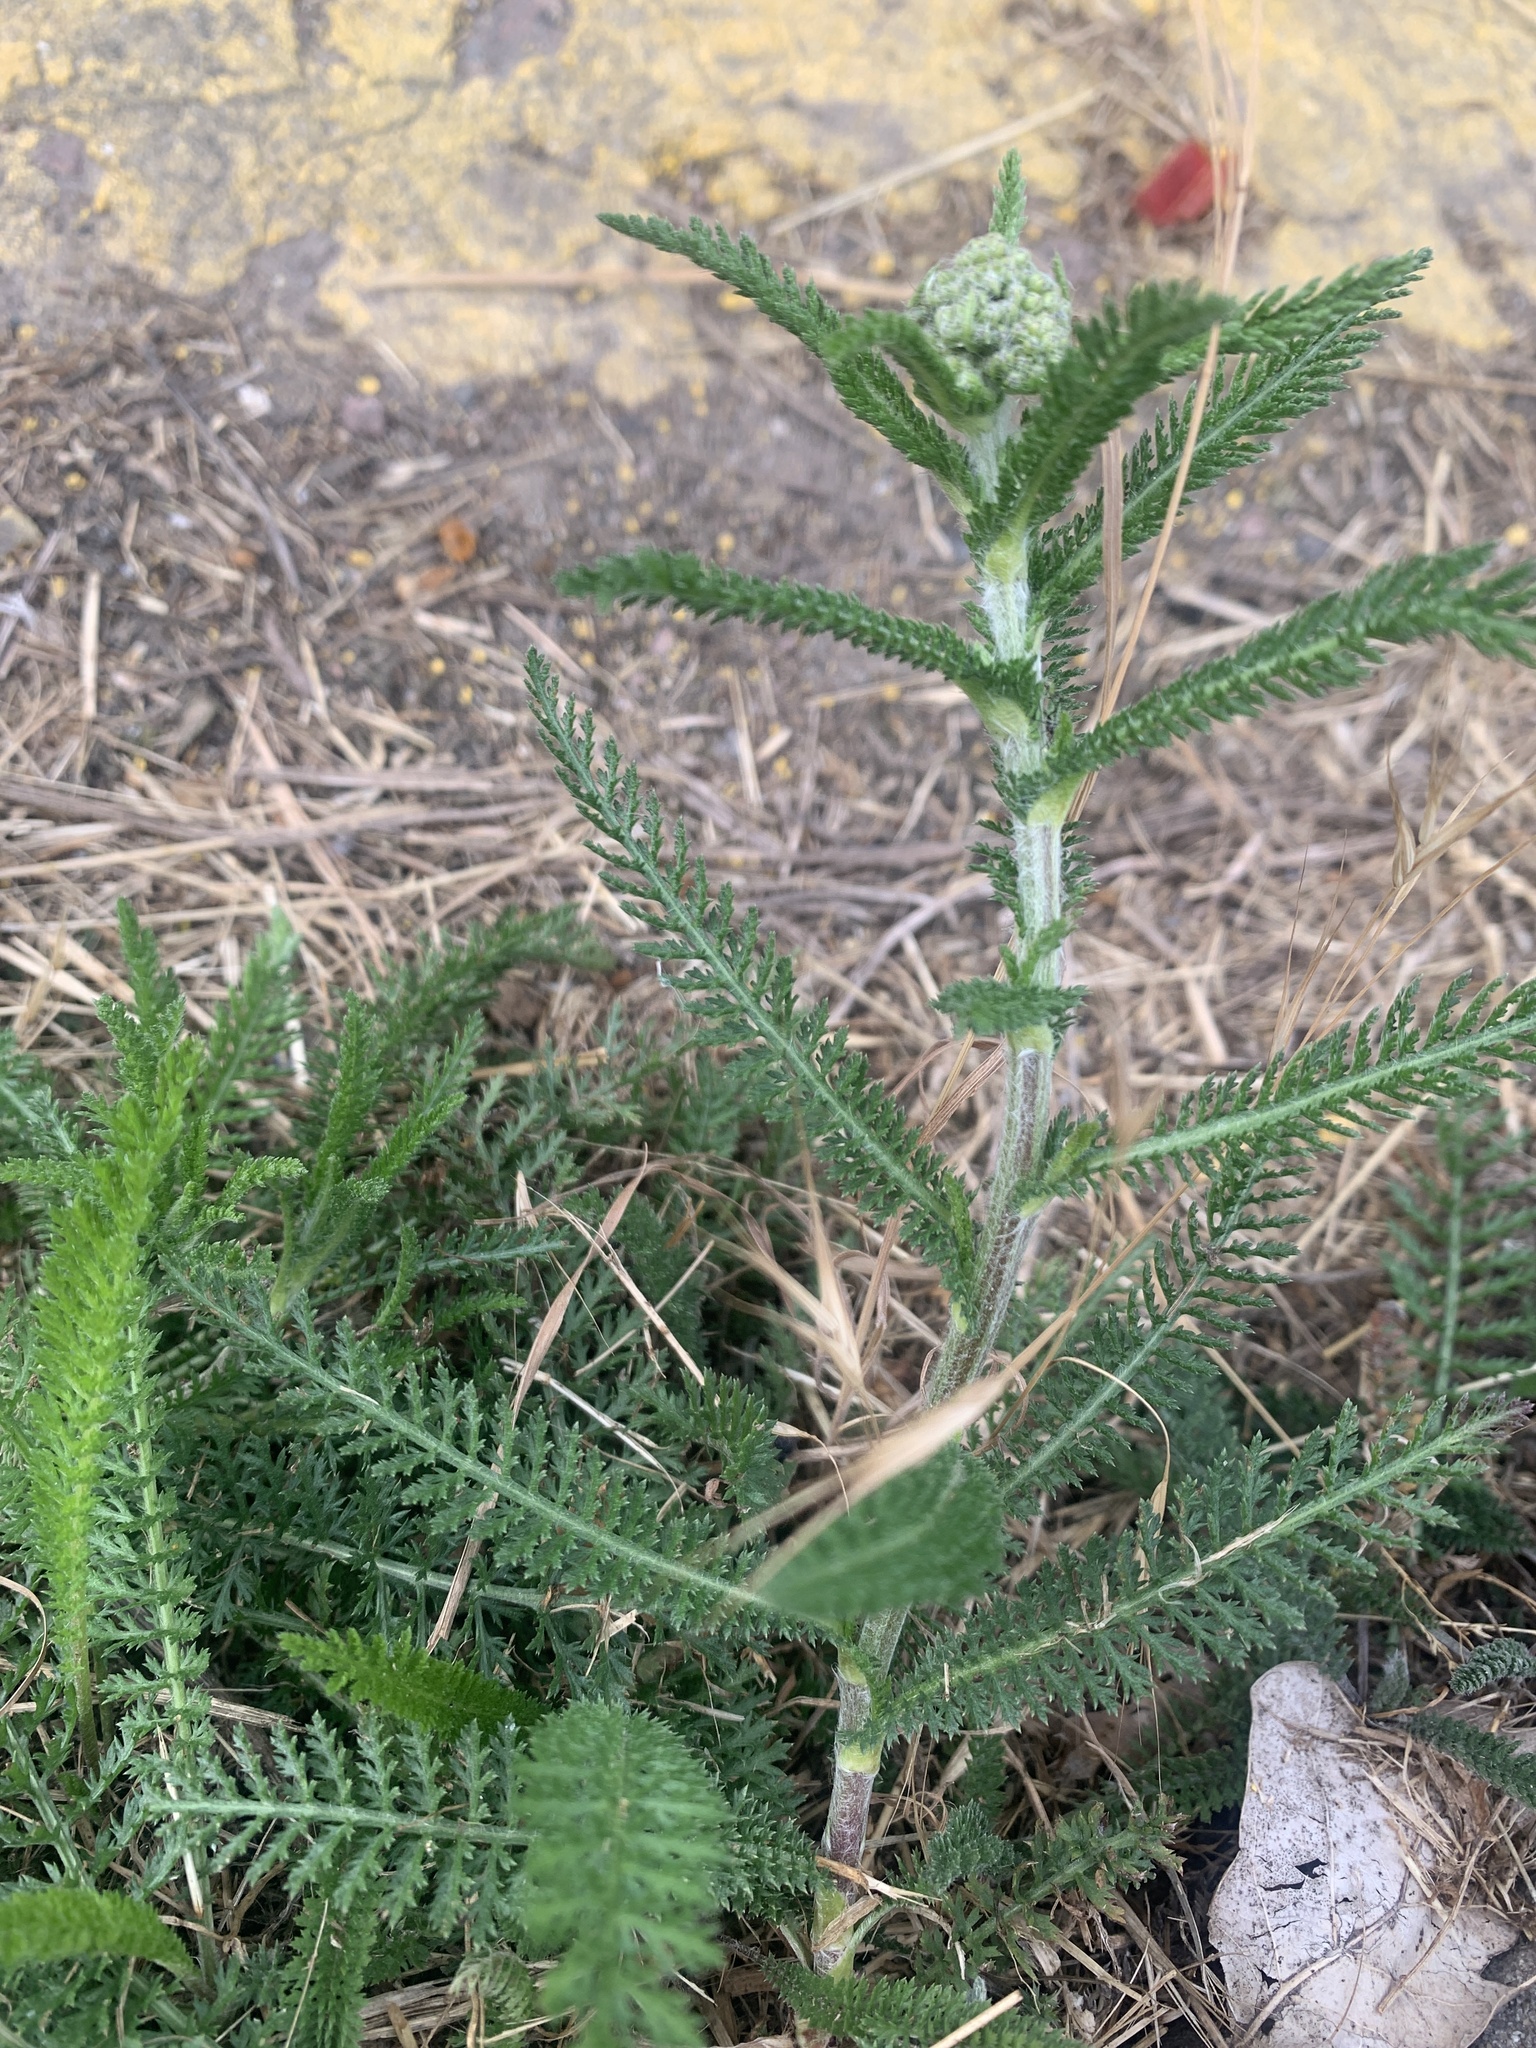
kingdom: Plantae
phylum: Tracheophyta
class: Magnoliopsida
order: Asterales
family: Asteraceae
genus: Achillea
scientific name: Achillea millefolium
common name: Yarrow
